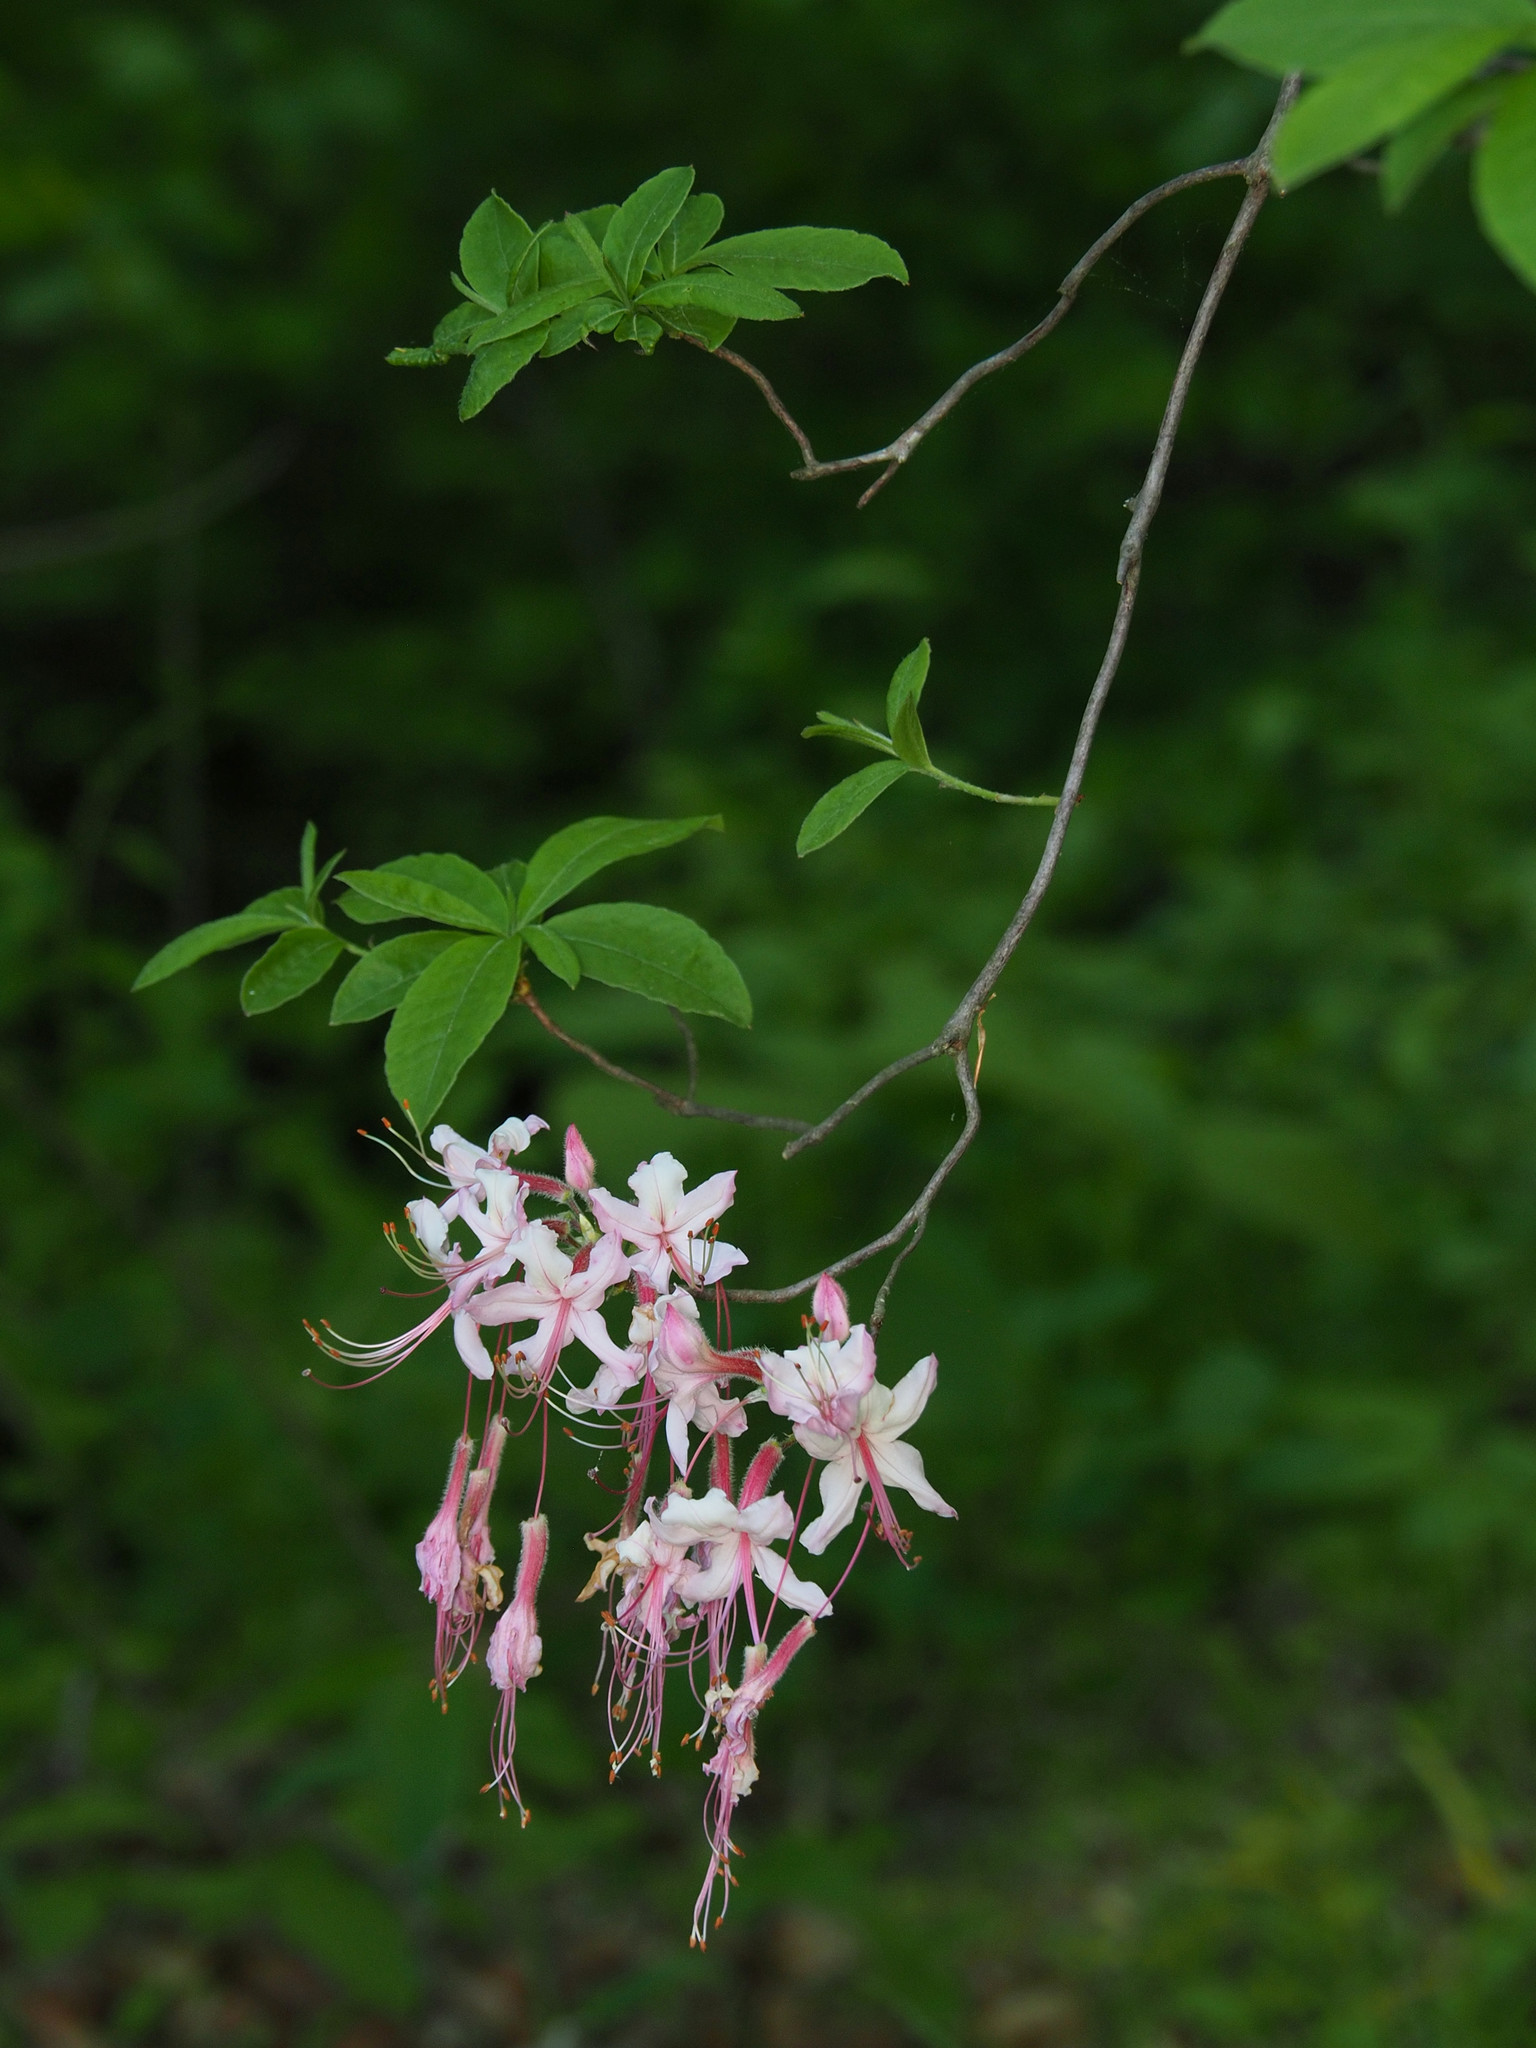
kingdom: Plantae
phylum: Tracheophyta
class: Magnoliopsida
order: Ericales
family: Ericaceae
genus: Rhododendron
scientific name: Rhododendron periclymenoides
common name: Election-pink
